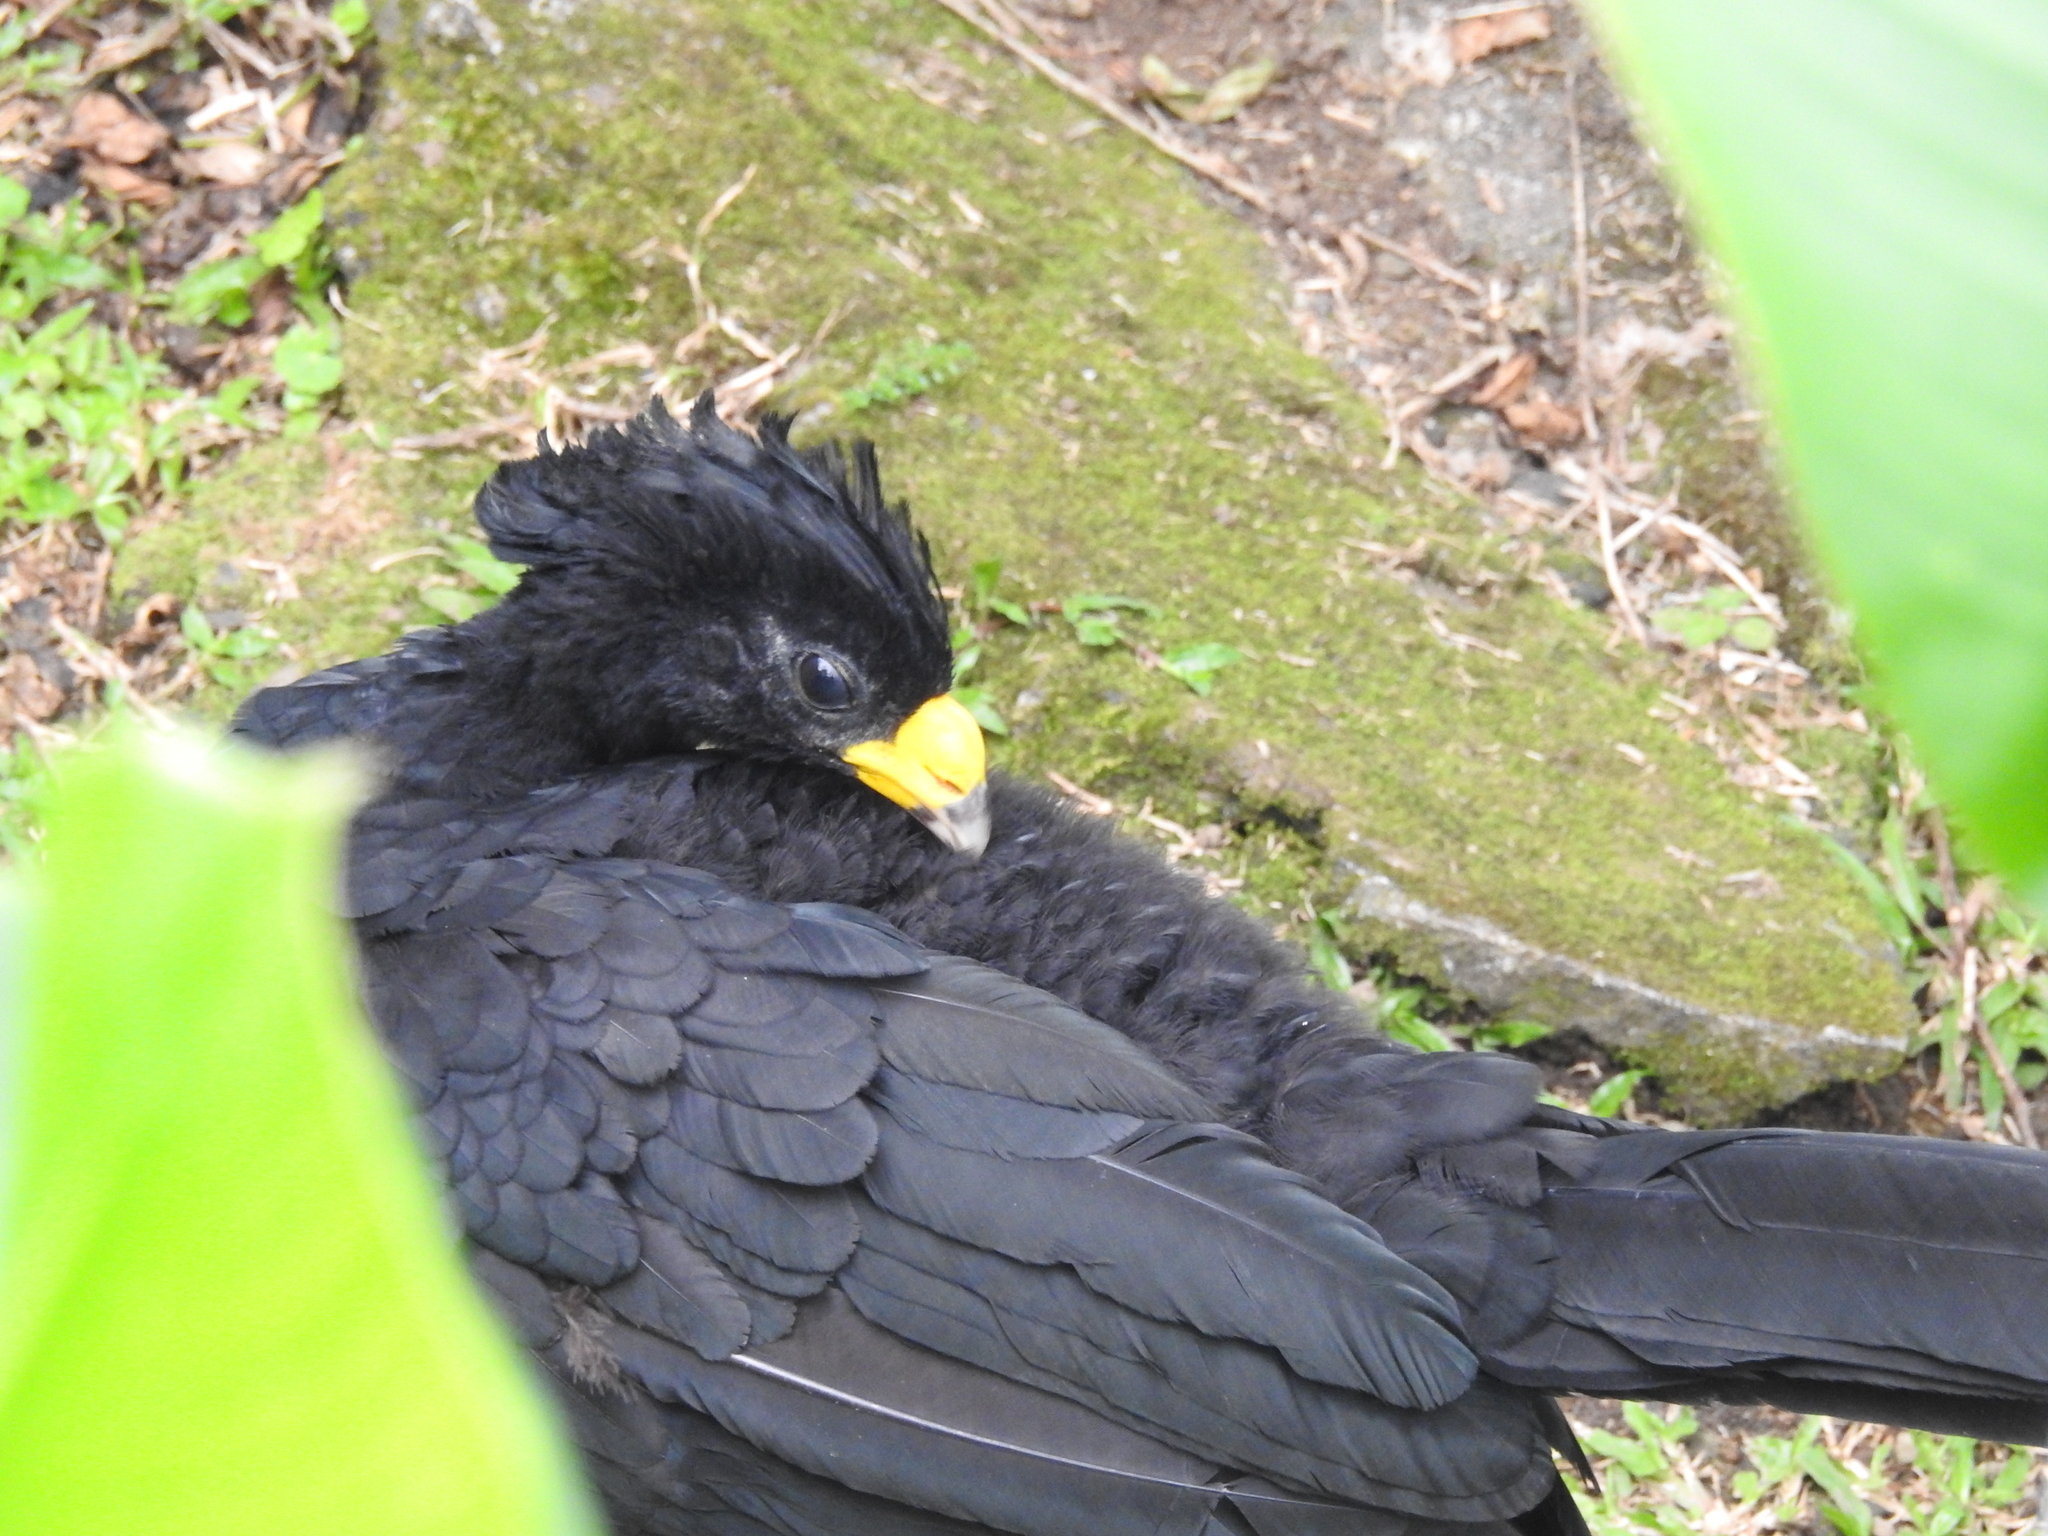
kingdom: Animalia
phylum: Chordata
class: Aves
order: Galliformes
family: Cracidae
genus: Crax
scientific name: Crax rubra
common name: Great curassow
